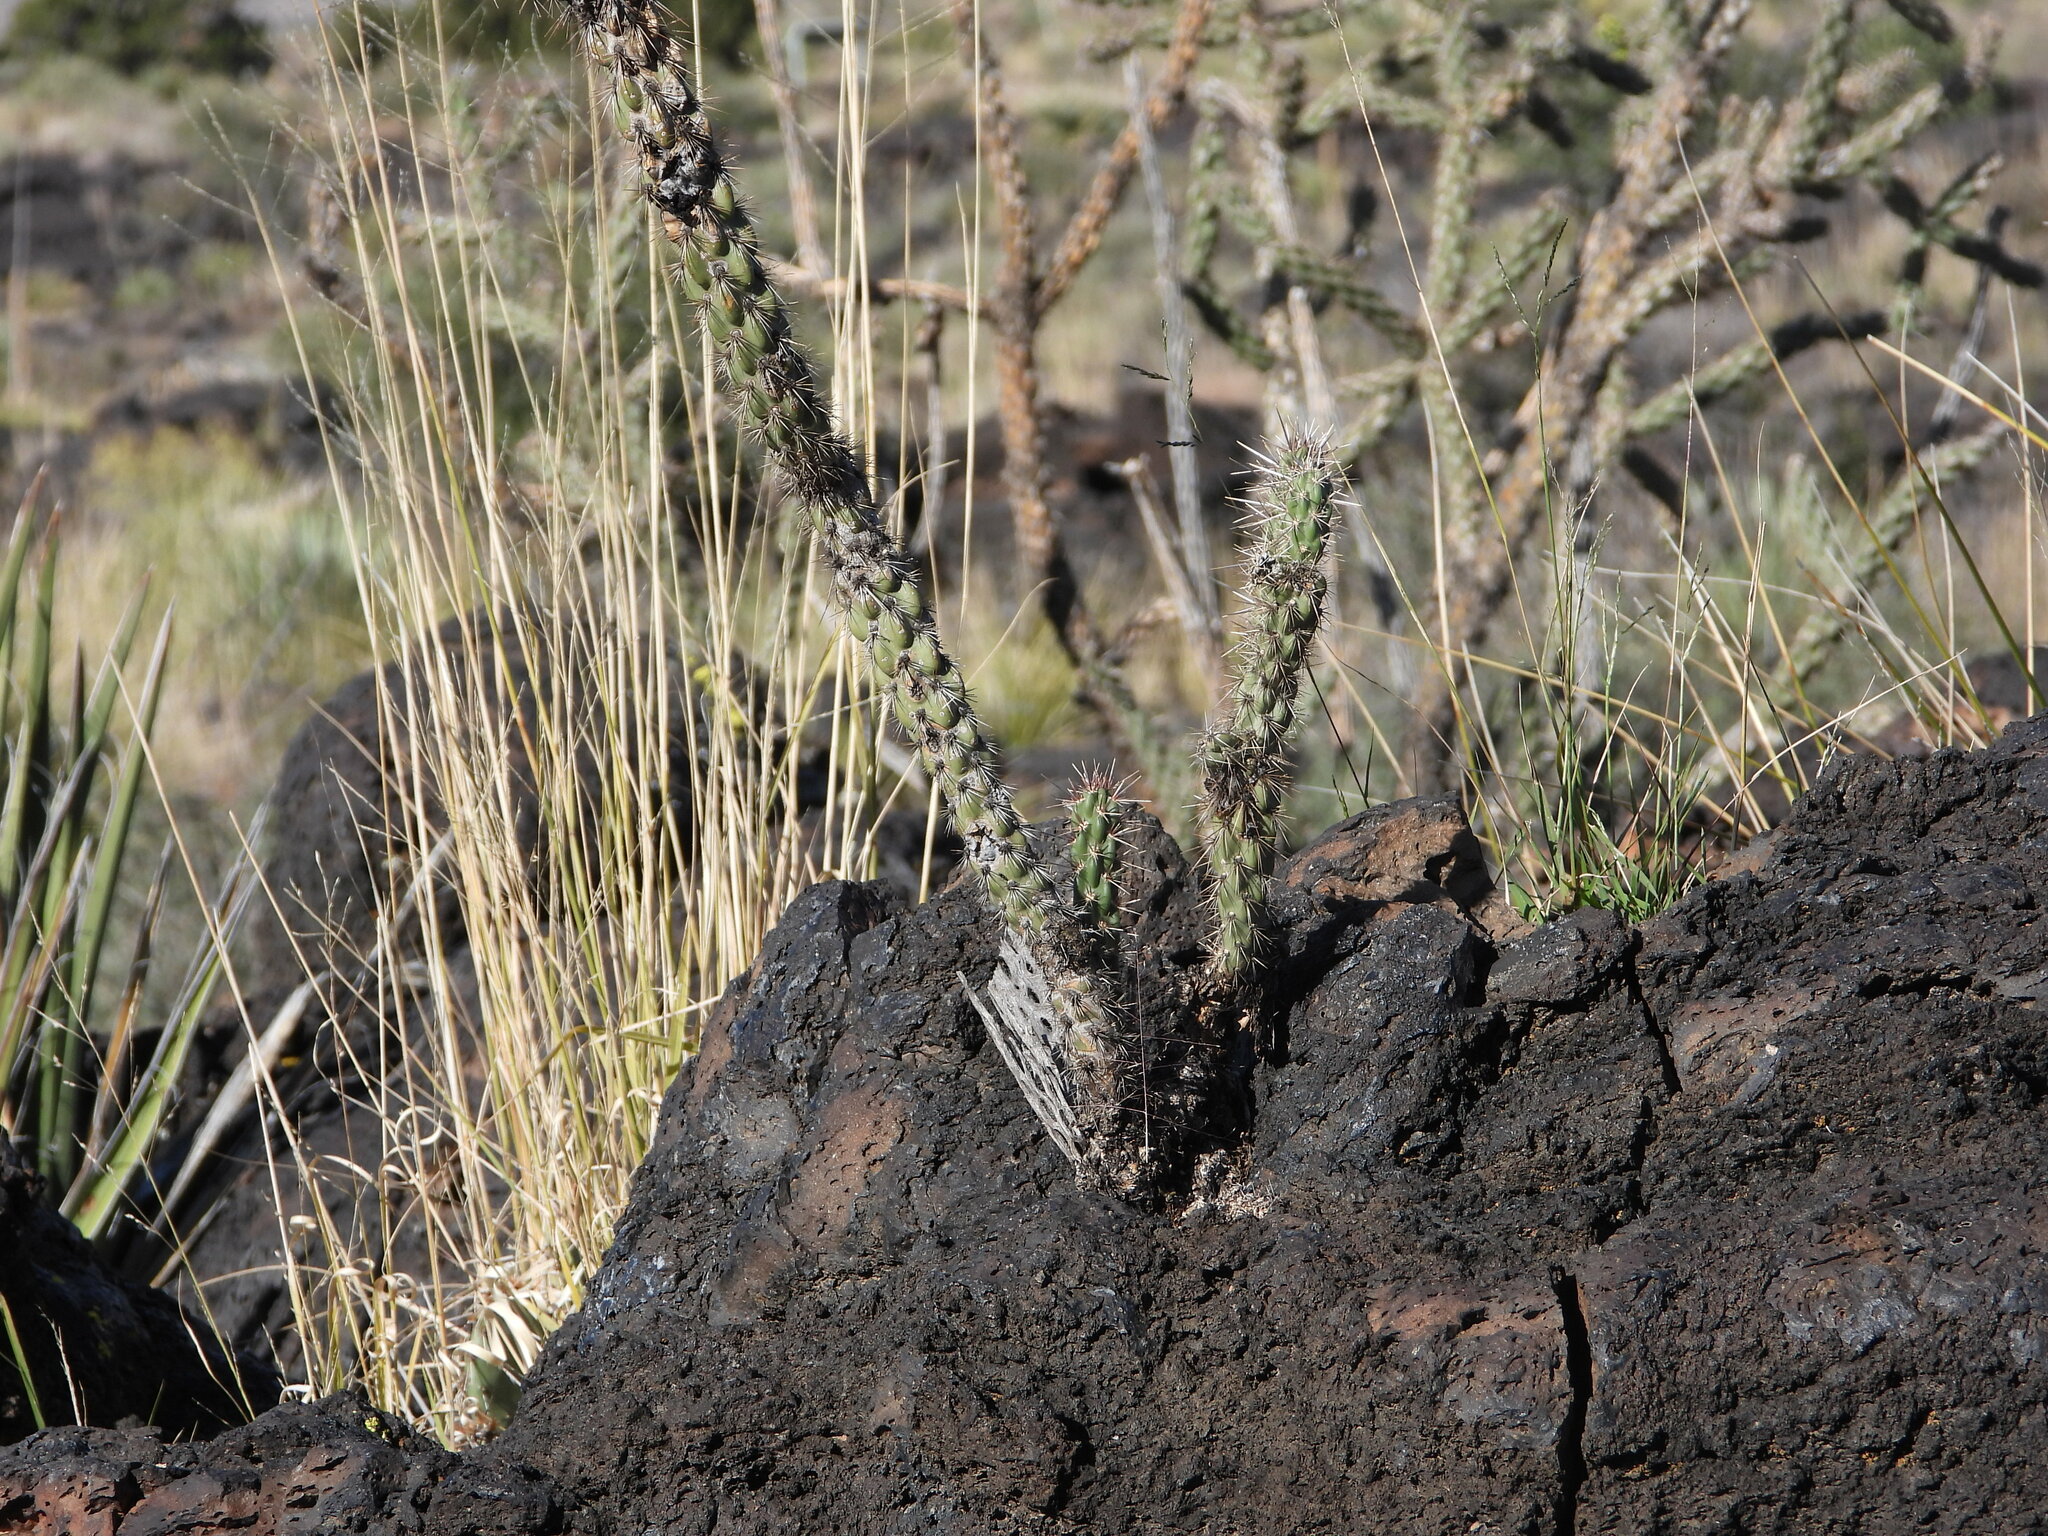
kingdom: Plantae
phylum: Tracheophyta
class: Magnoliopsida
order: Caryophyllales
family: Cactaceae
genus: Cylindropuntia
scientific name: Cylindropuntia imbricata
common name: Candelabrum cactus
